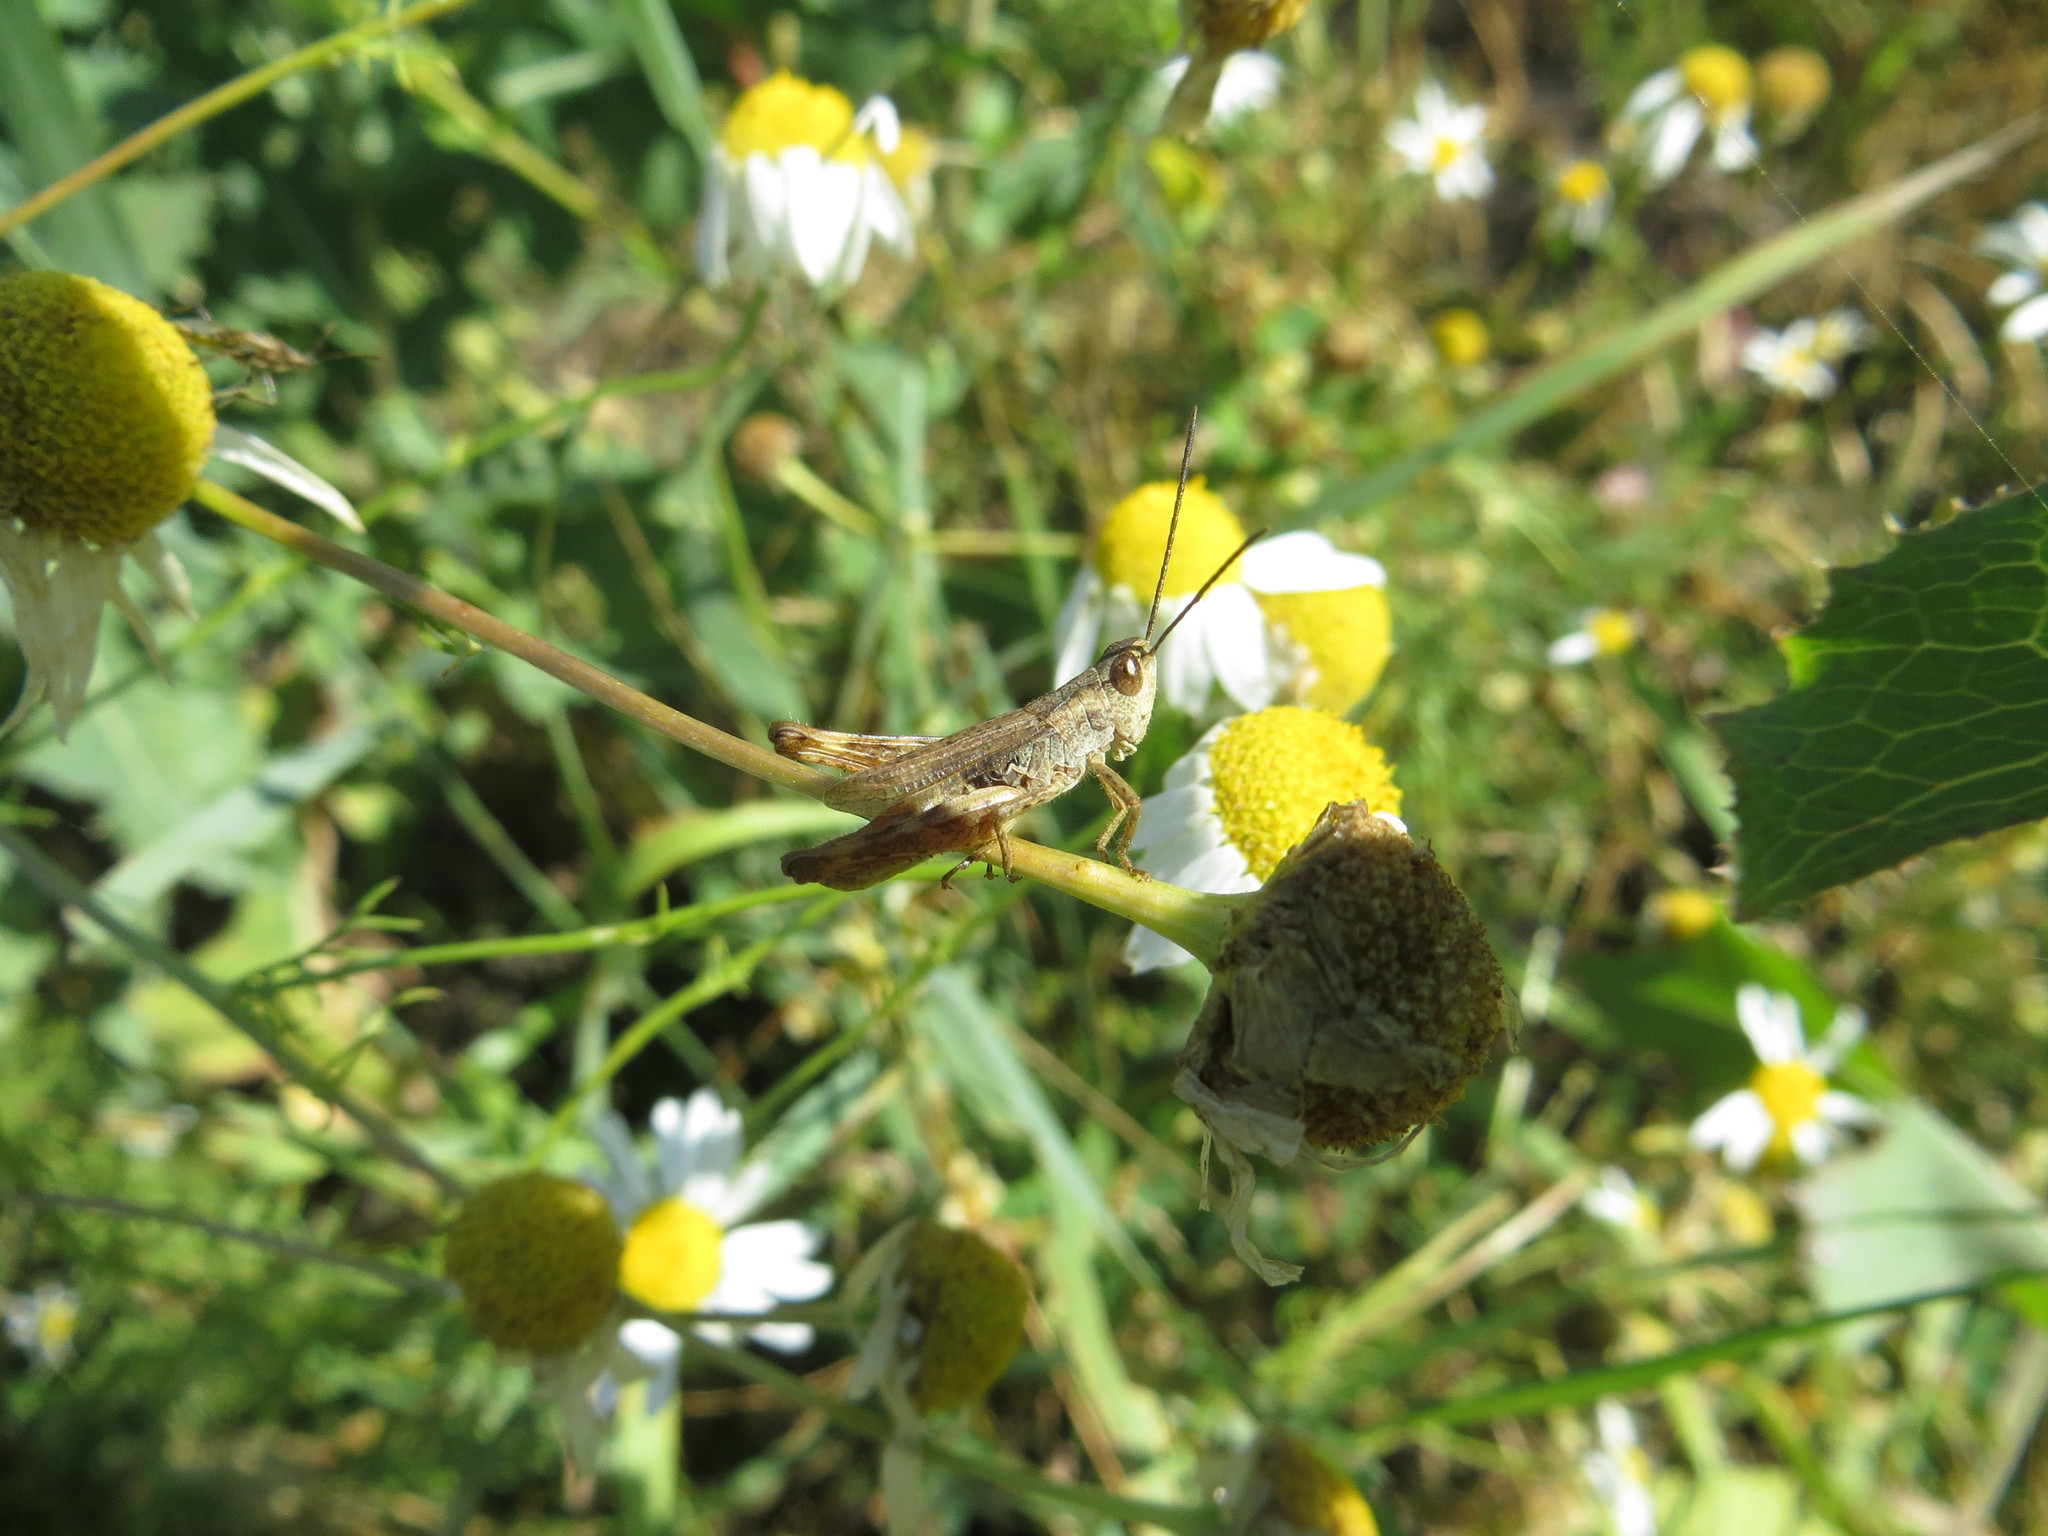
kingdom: Animalia
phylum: Arthropoda
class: Insecta
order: Orthoptera
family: Acrididae
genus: Chorthippus
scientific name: Chorthippus macrocerus
